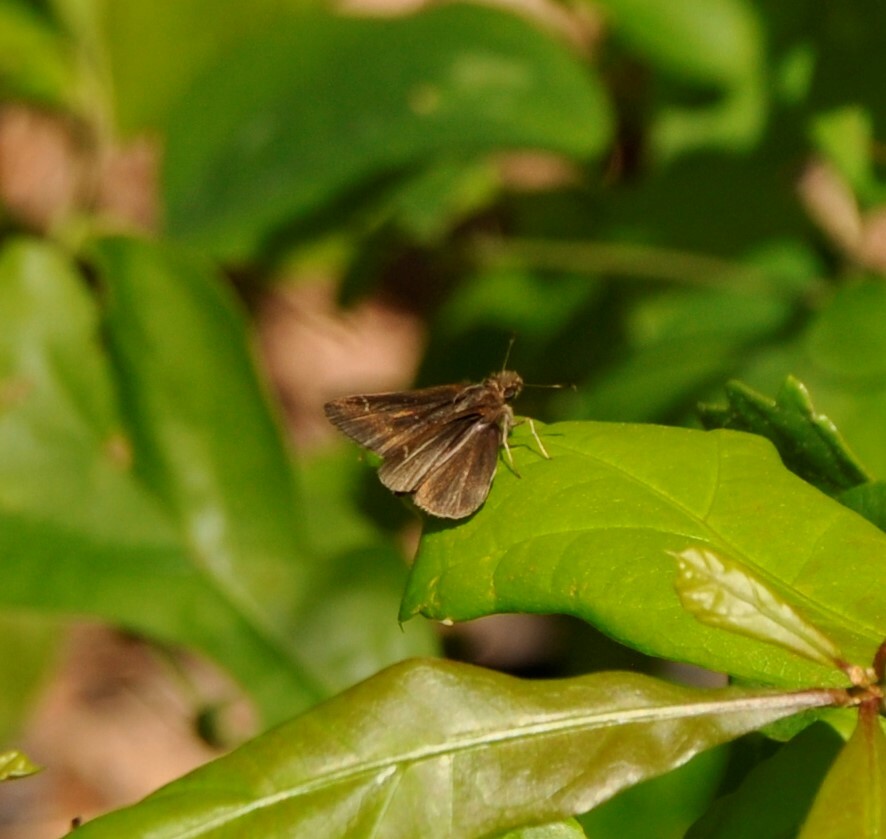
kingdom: Animalia
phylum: Arthropoda
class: Insecta
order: Lepidoptera
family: Hesperiidae
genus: Lerema
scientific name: Lerema accius
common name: Clouded skipper
